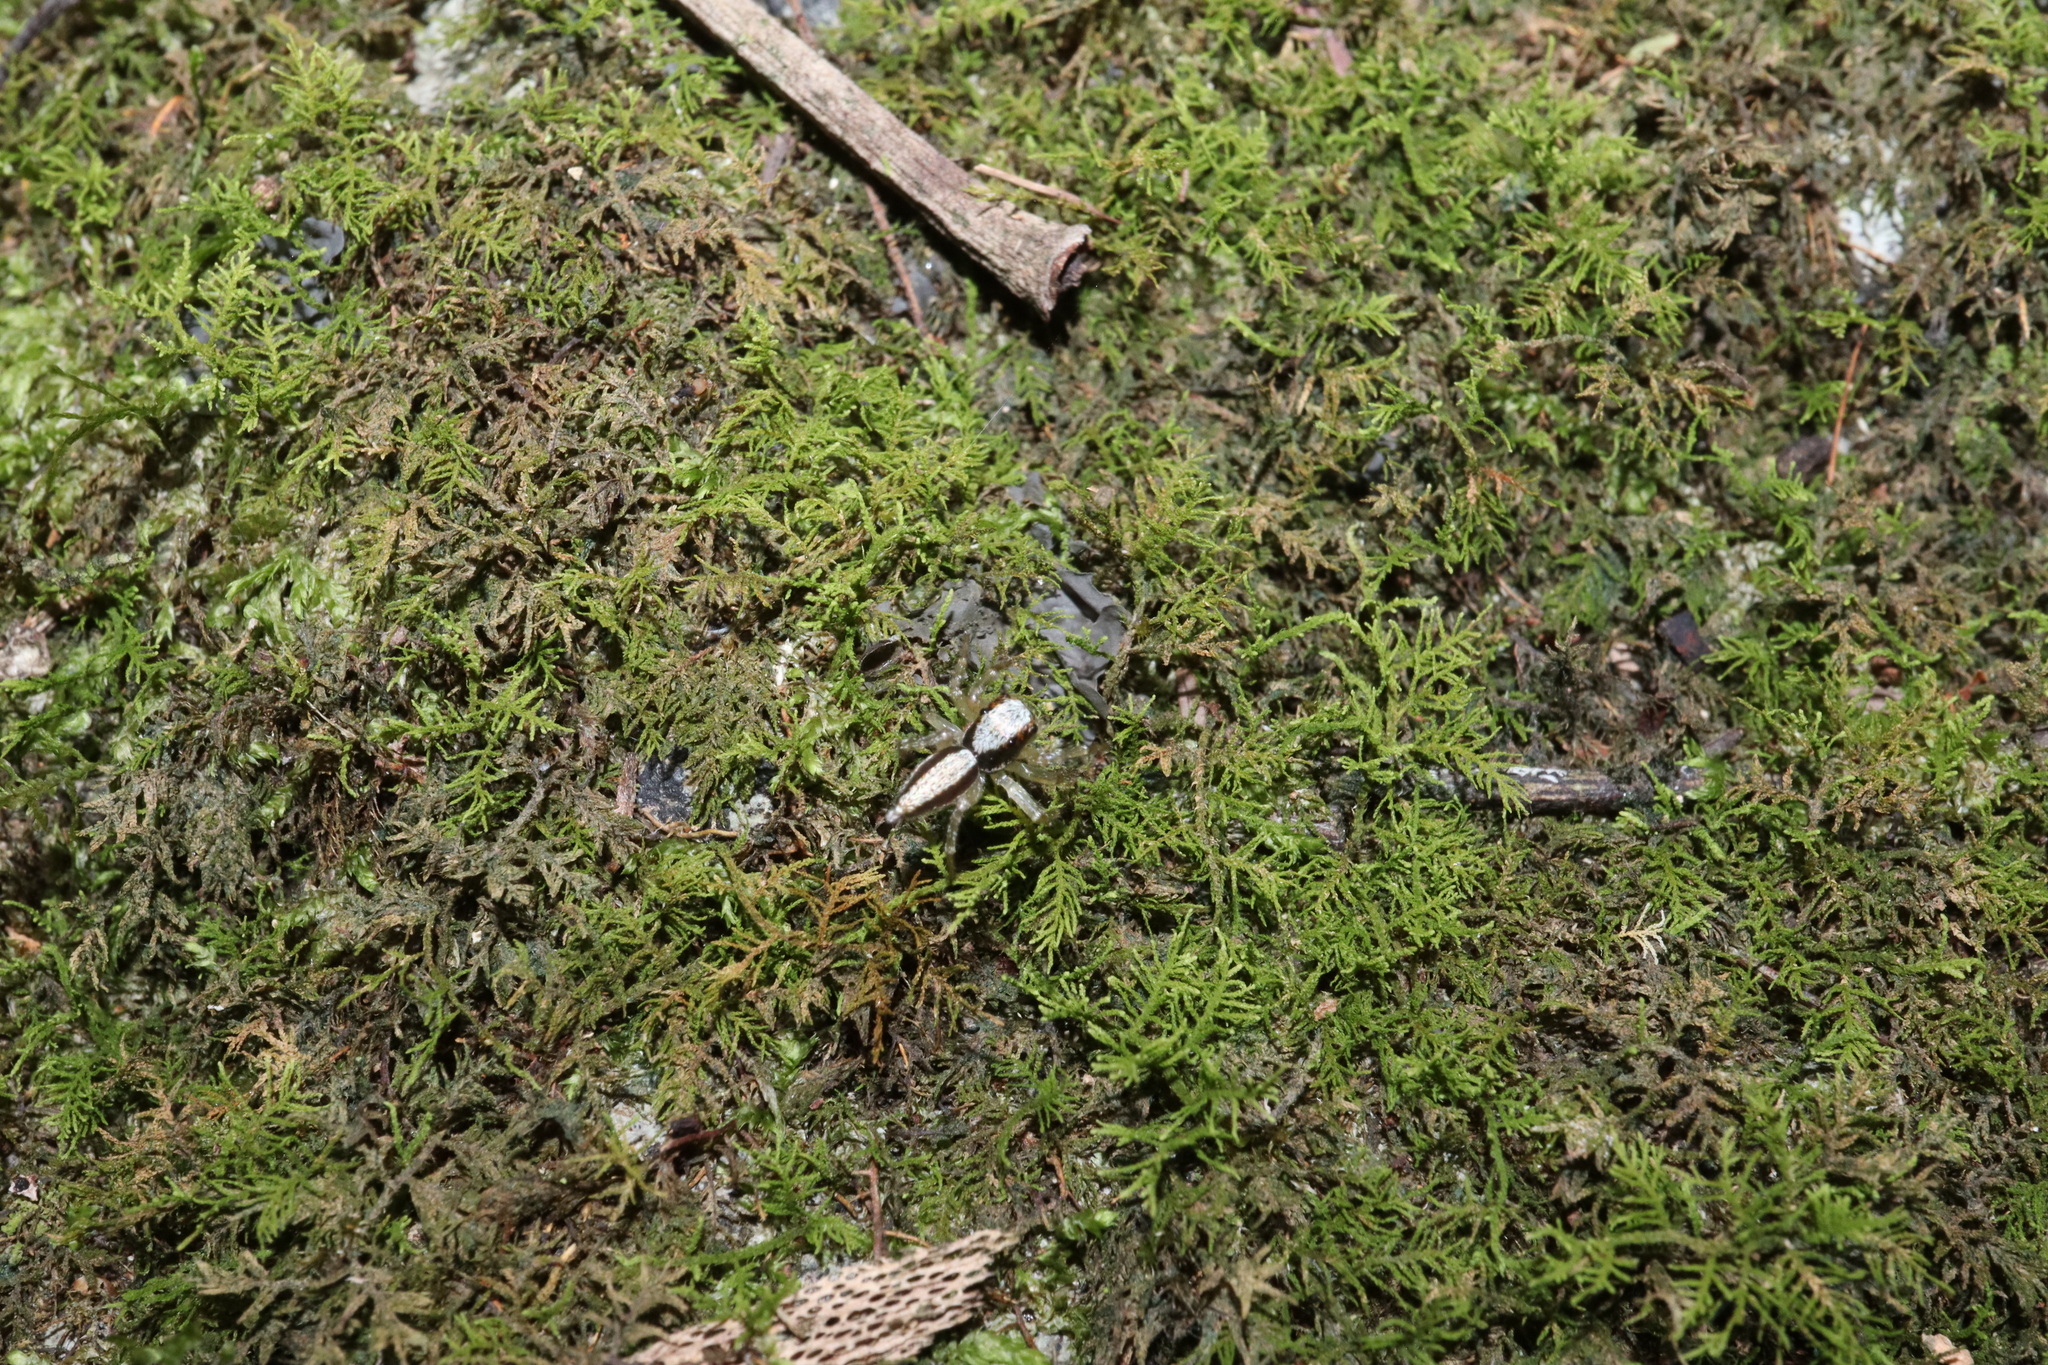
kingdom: Animalia
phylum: Arthropoda
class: Arachnida
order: Araneae
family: Salticidae
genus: Zenodorus
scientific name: Zenodorus swiftorum
